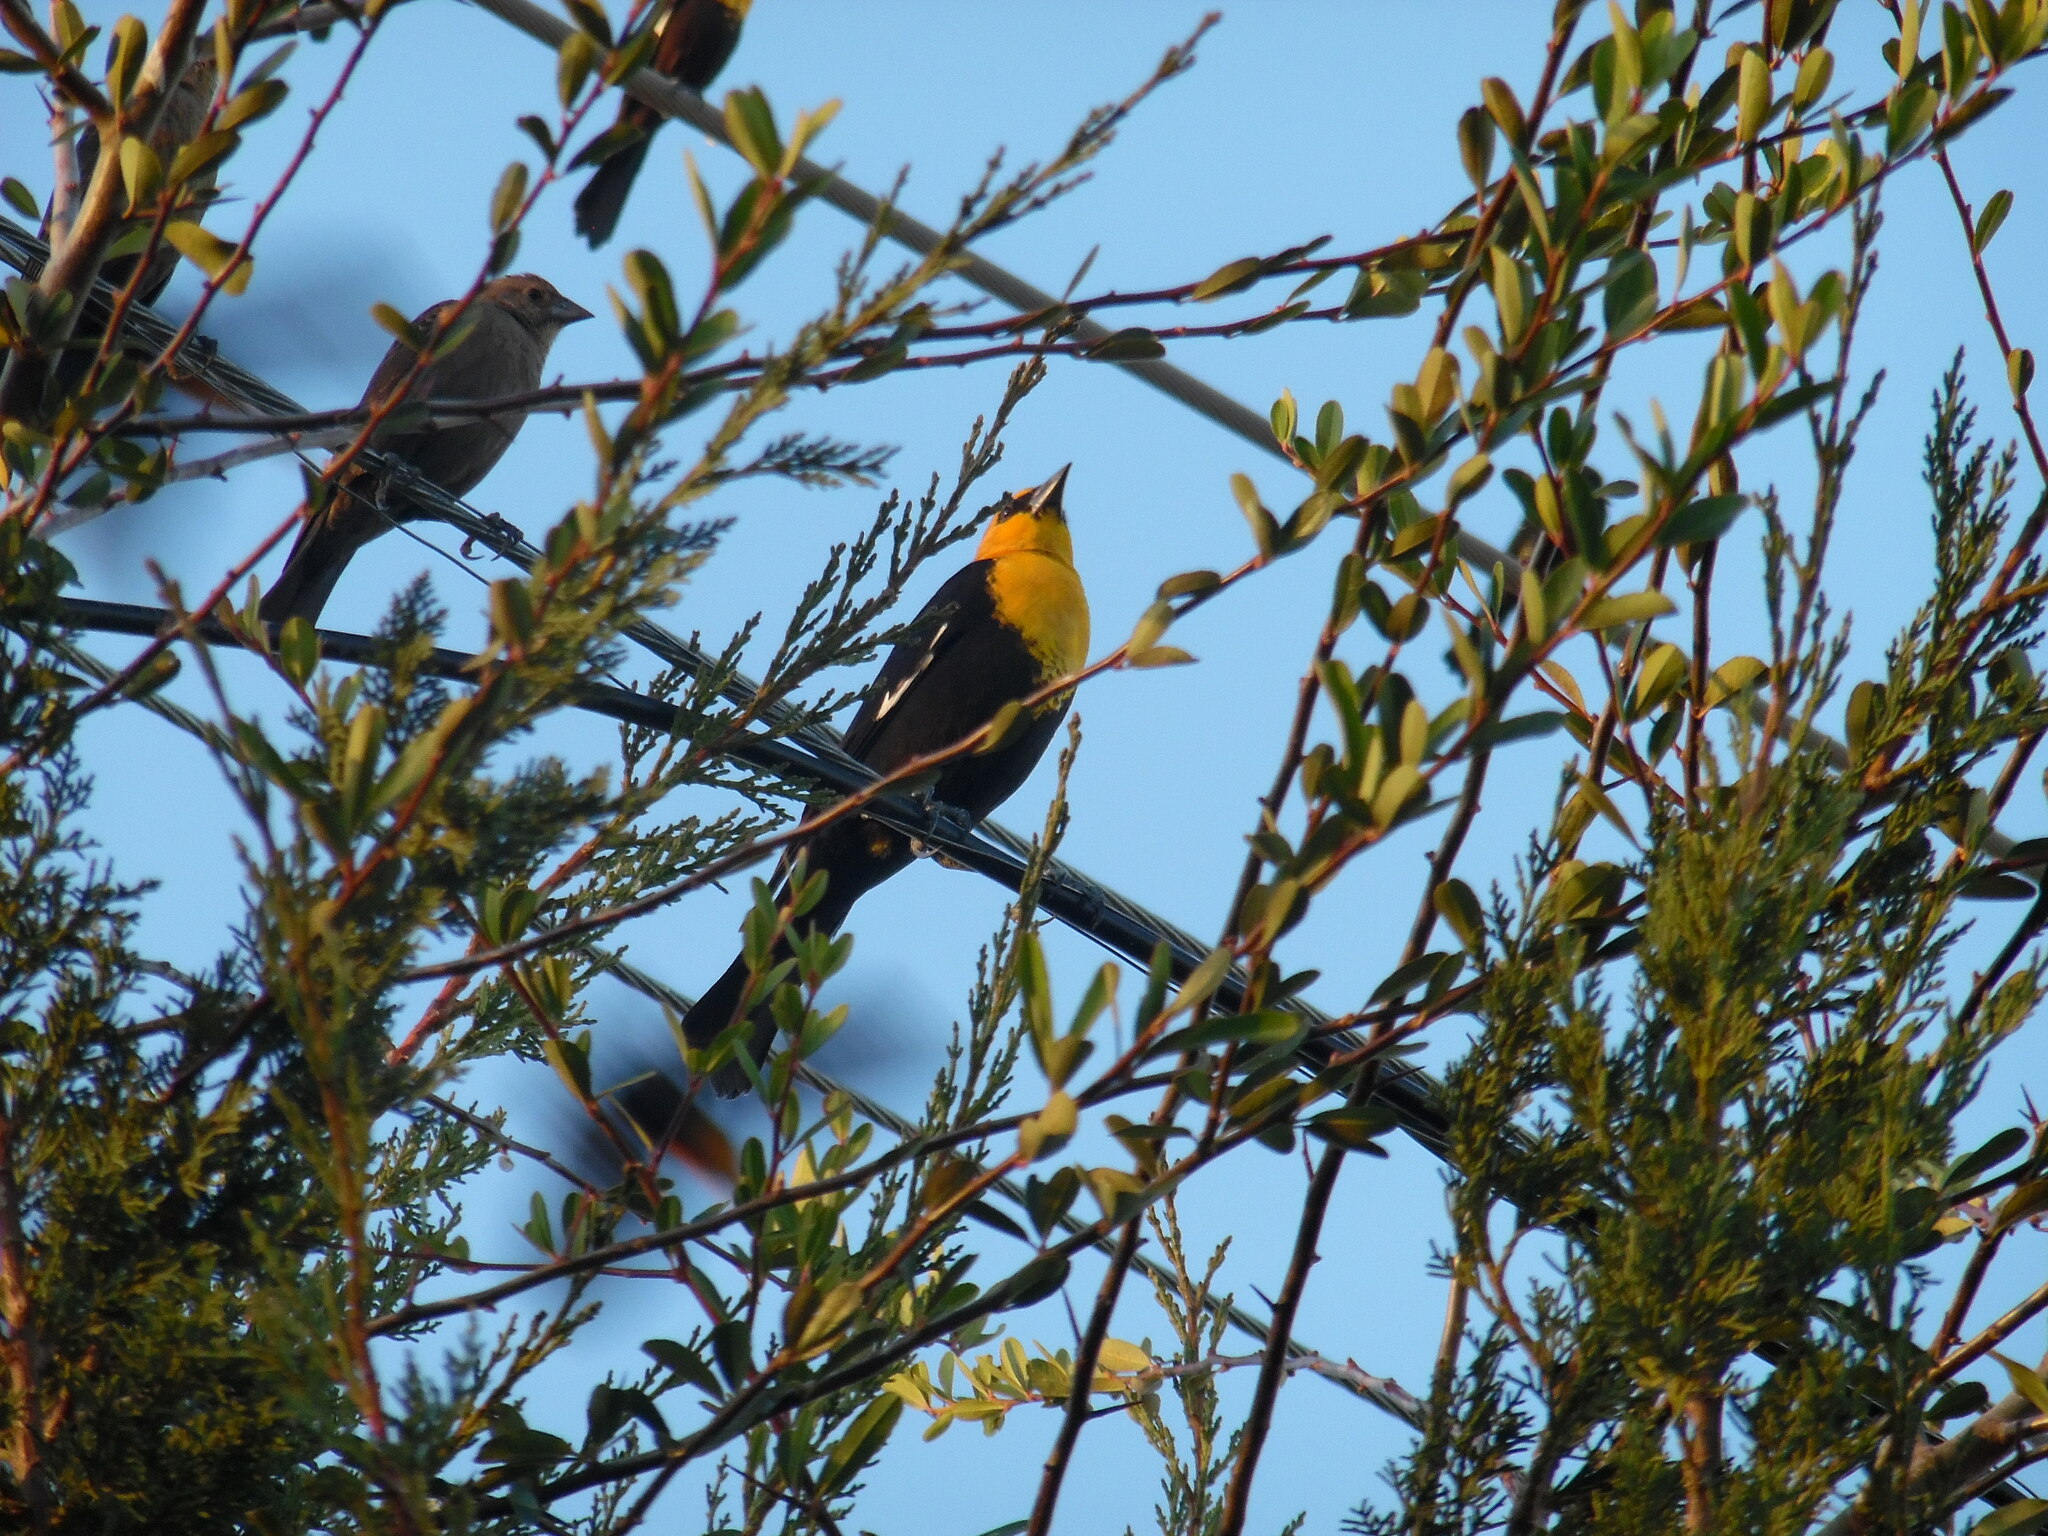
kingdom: Animalia
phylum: Chordata
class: Aves
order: Passeriformes
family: Icteridae
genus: Xanthocephalus
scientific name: Xanthocephalus xanthocephalus
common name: Yellow-headed blackbird
